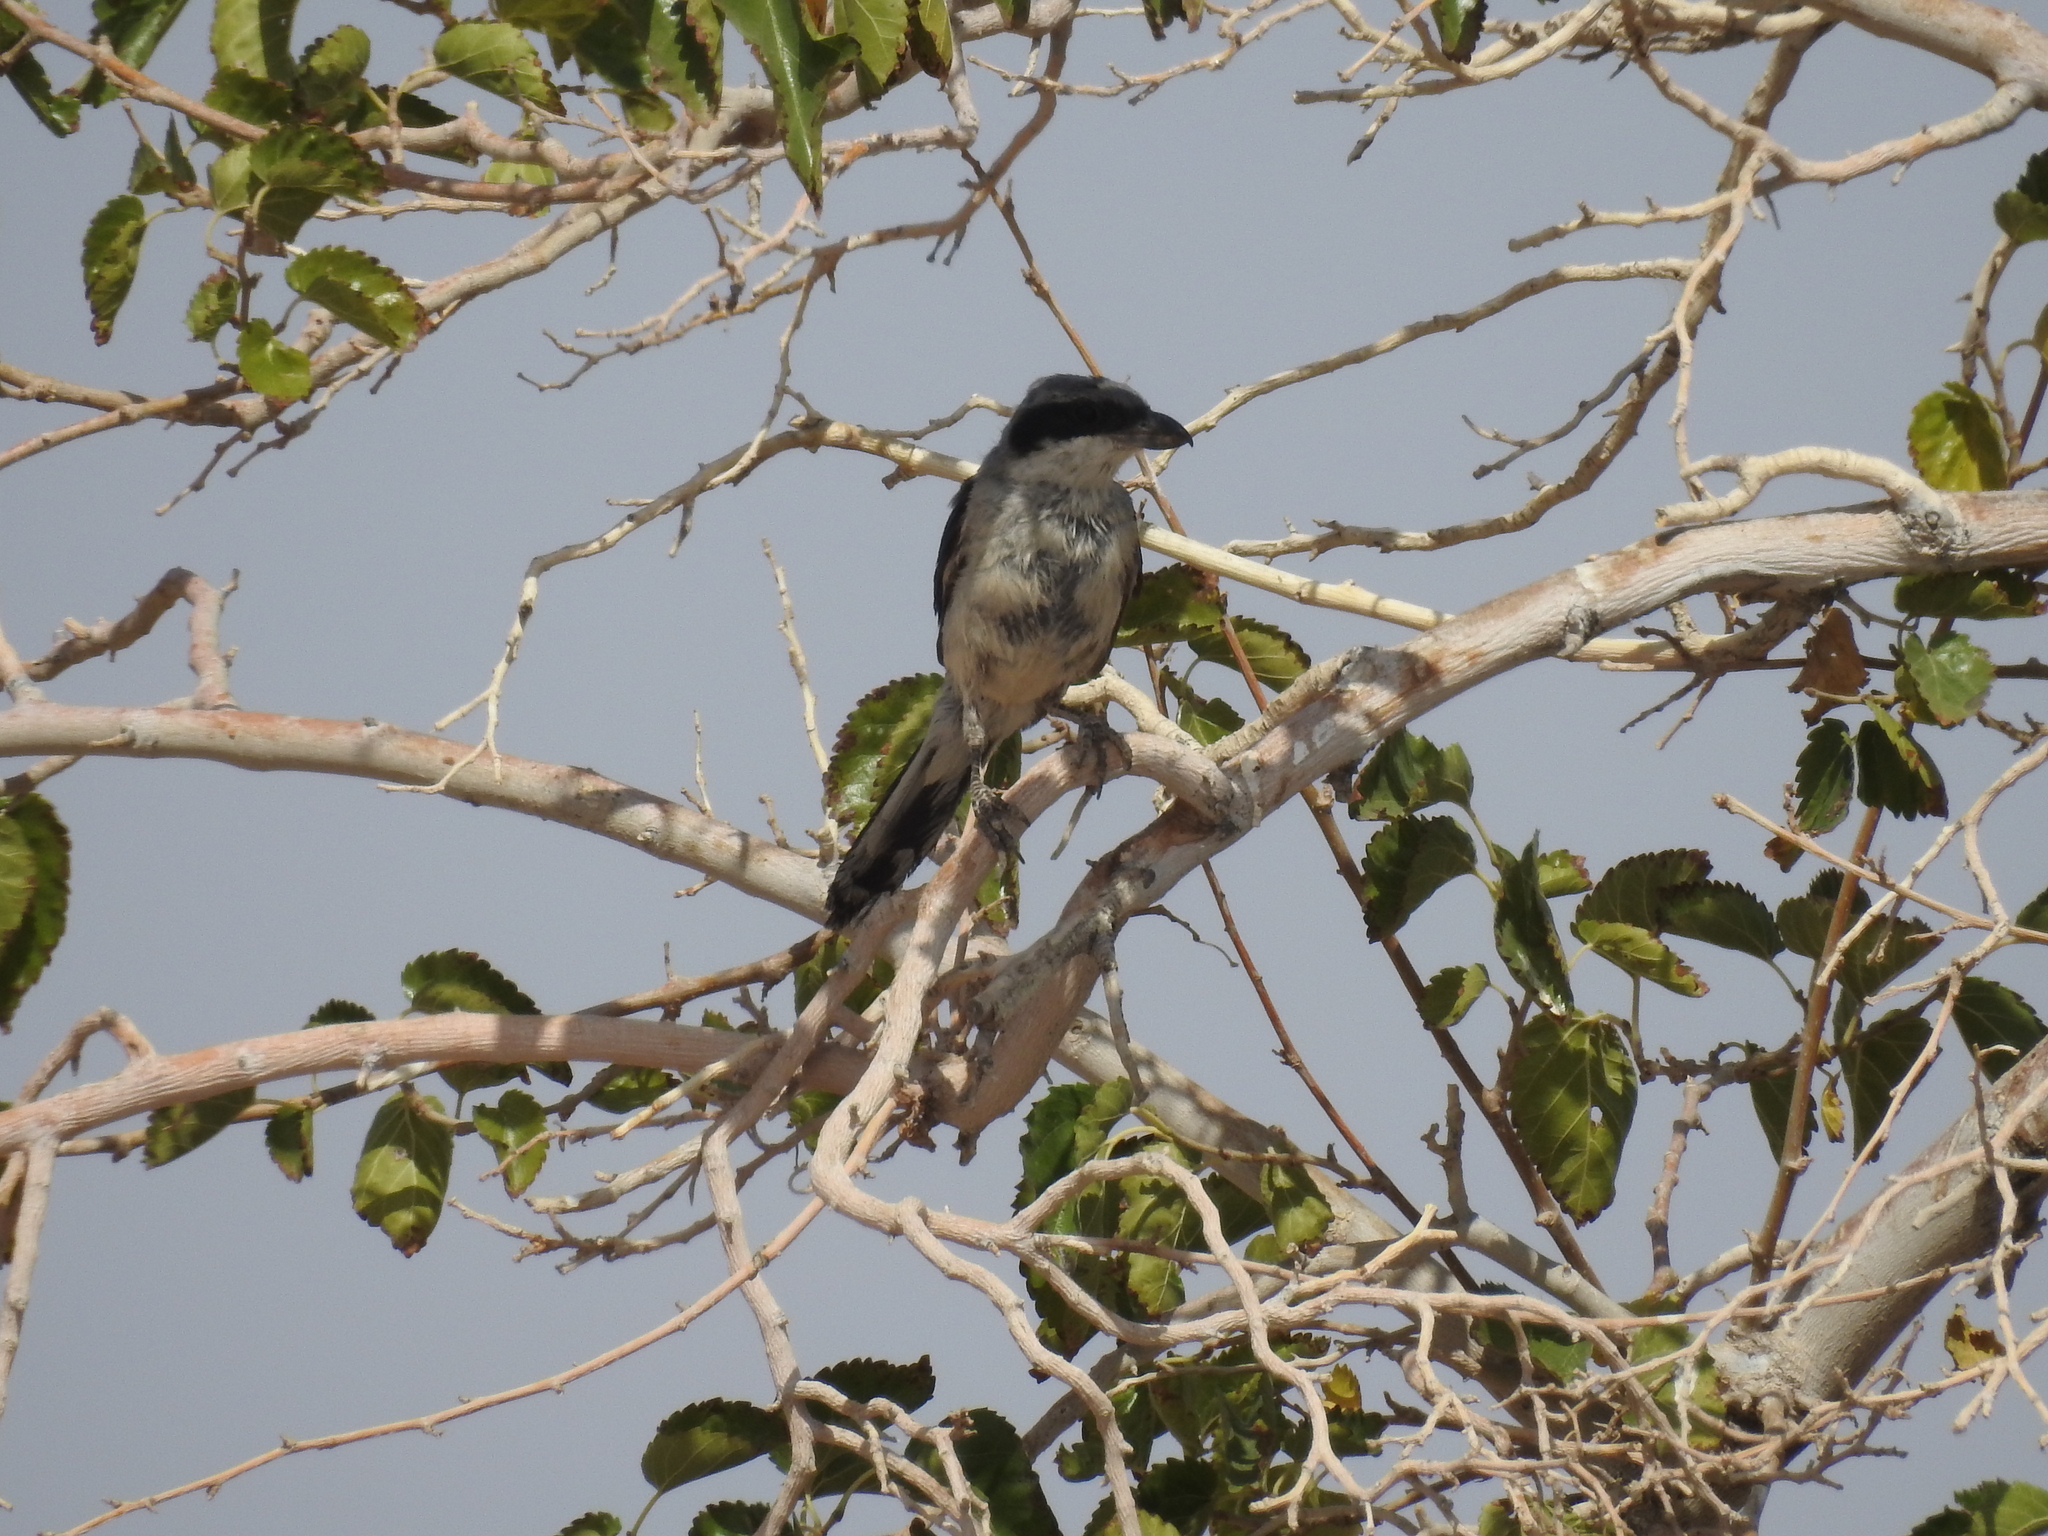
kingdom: Animalia
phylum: Chordata
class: Aves
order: Passeriformes
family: Laniidae
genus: Lanius
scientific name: Lanius excubitor
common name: Great grey shrike
